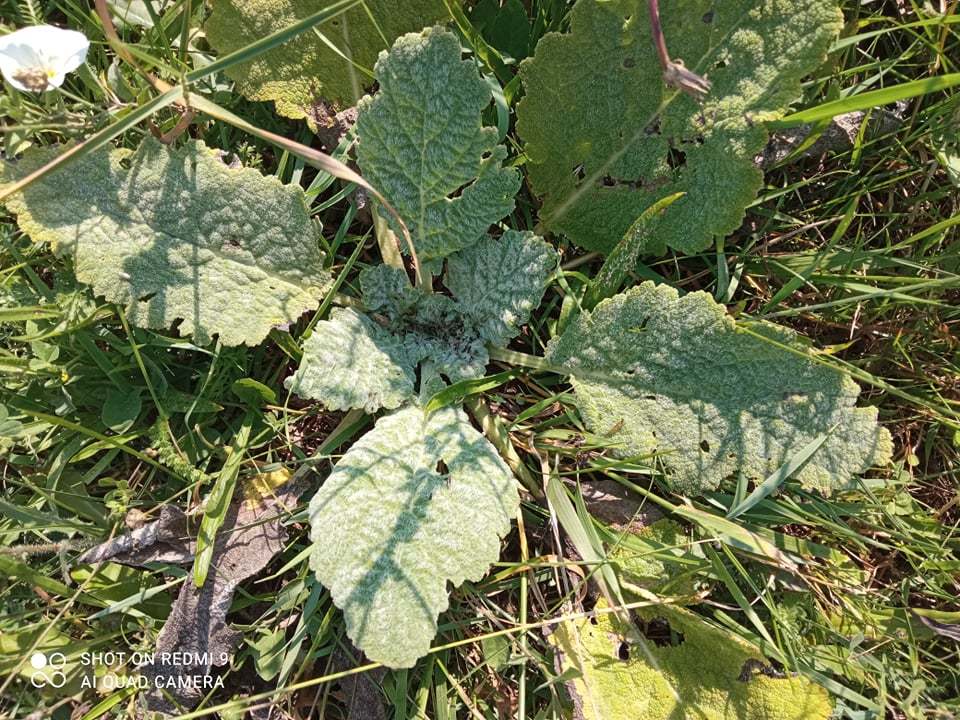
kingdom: Plantae
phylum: Tracheophyta
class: Magnoliopsida
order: Lamiales
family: Lamiaceae
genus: Salvia
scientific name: Salvia aethiopis
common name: Mediterranean sage
